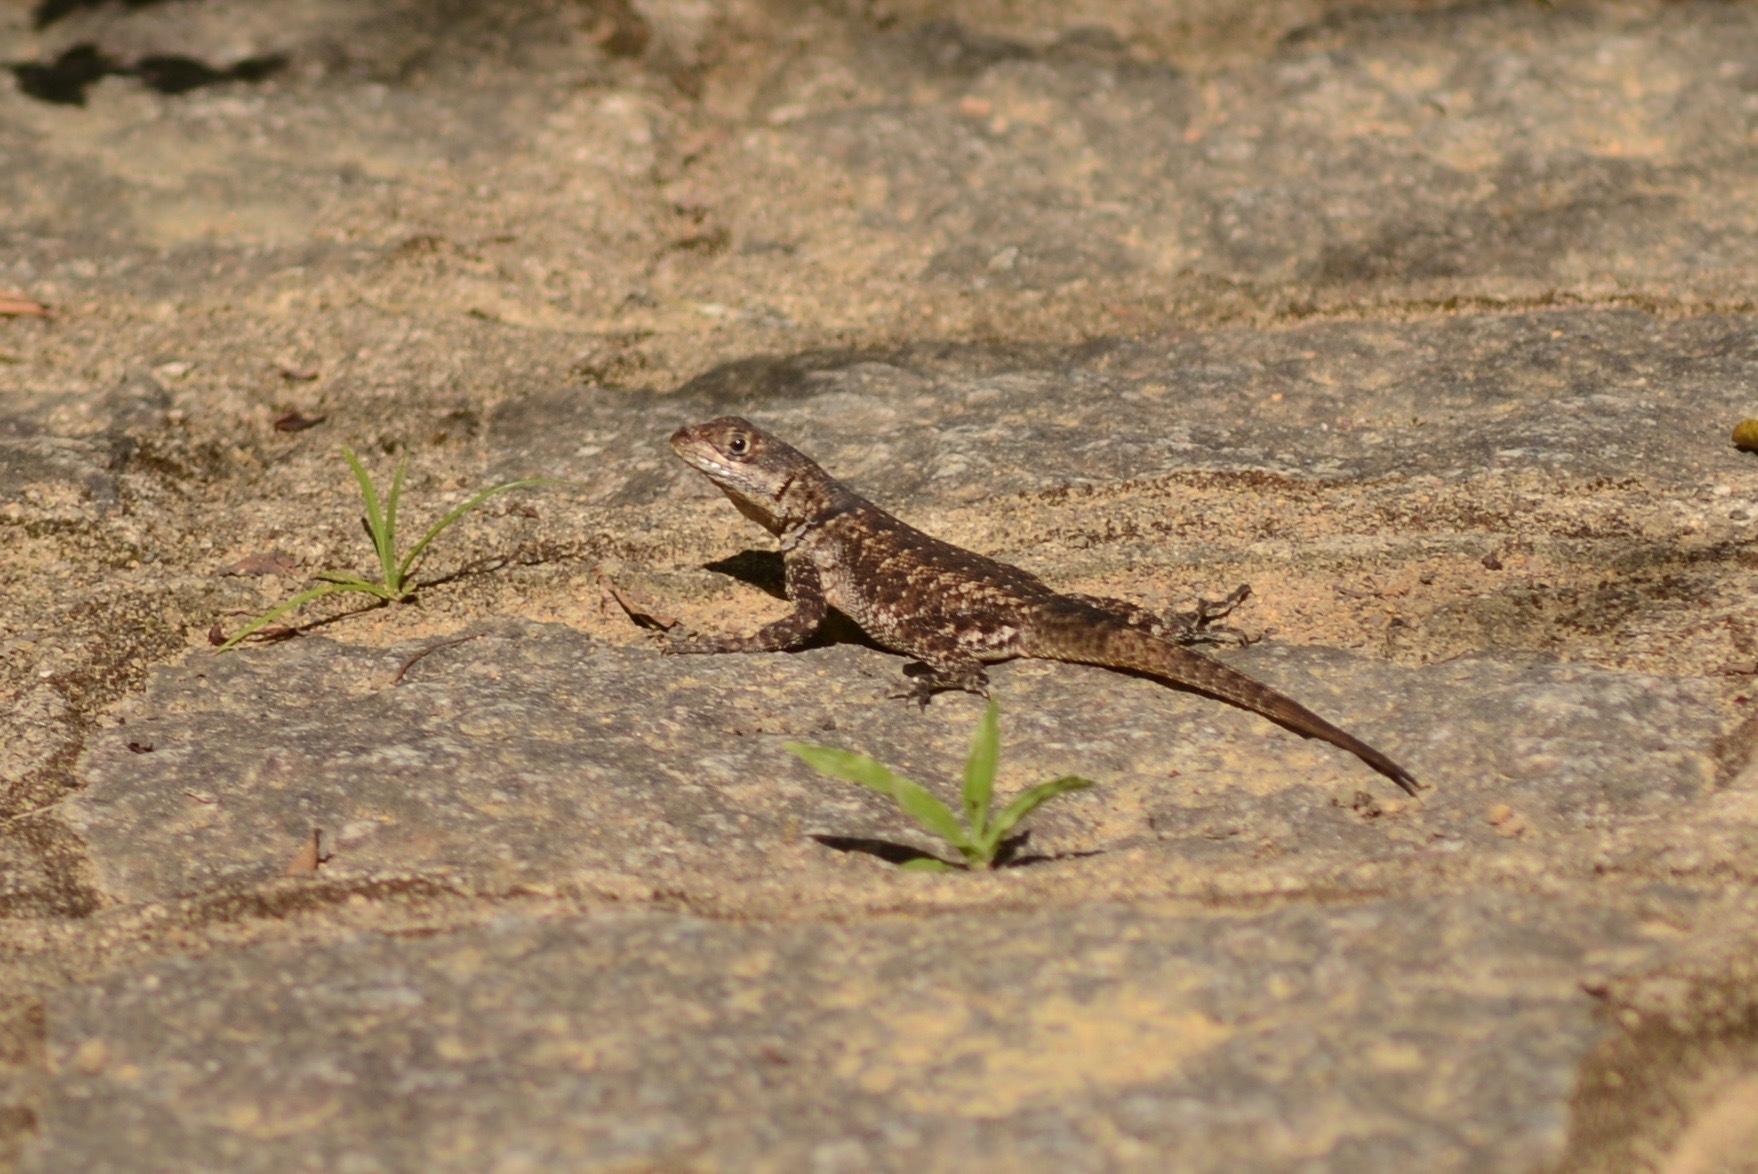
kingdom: Animalia
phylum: Chordata
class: Squamata
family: Tropiduridae
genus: Tropidurus
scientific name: Tropidurus hispidus
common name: Peters' lava lizard
